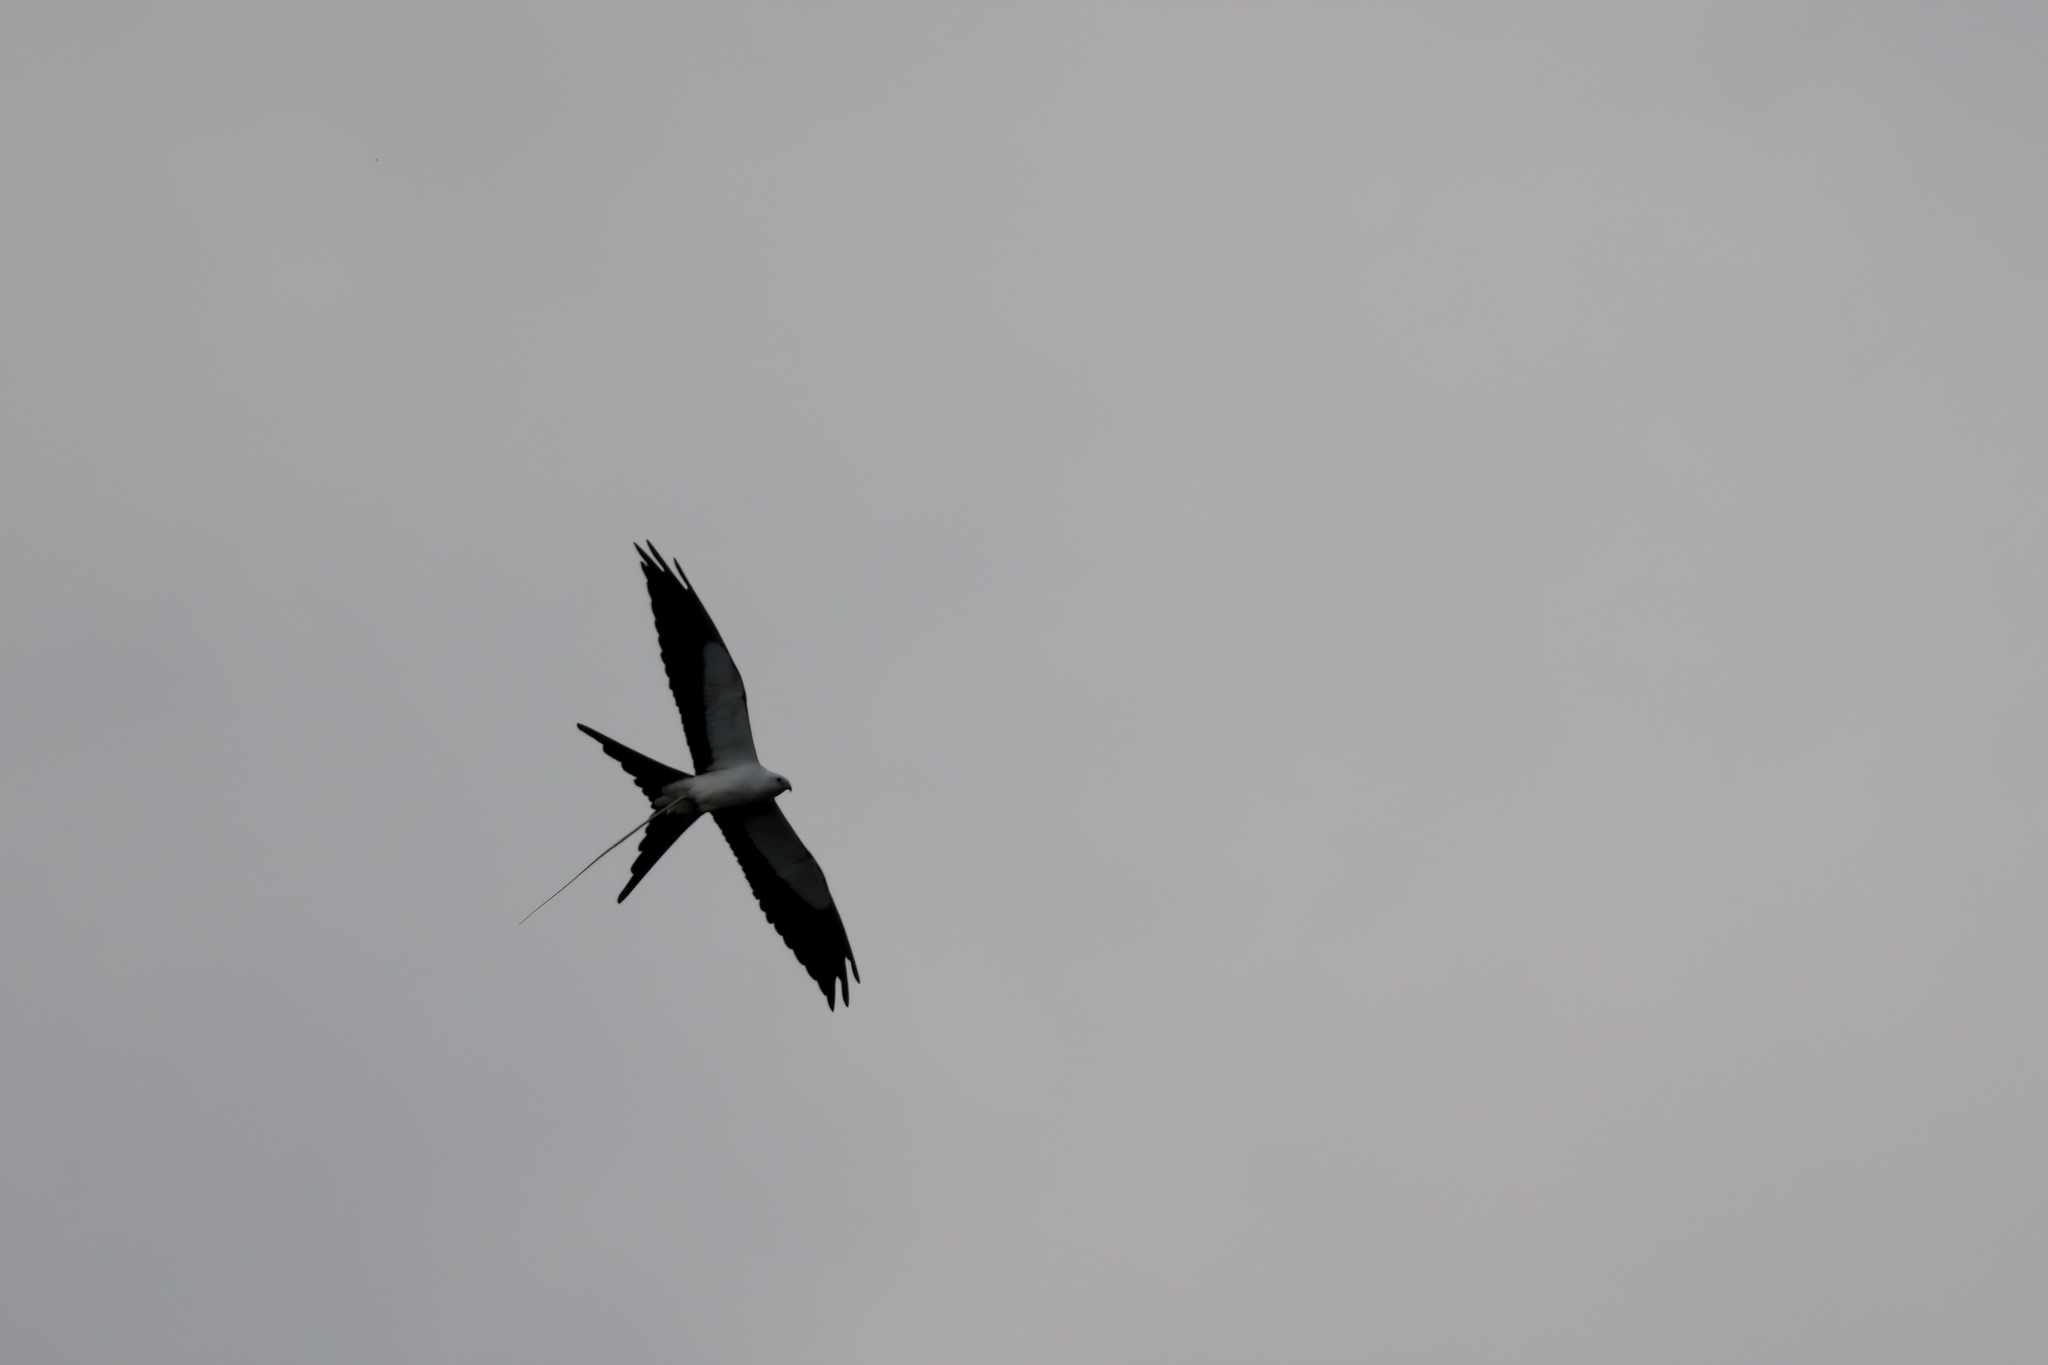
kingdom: Animalia
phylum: Chordata
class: Aves
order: Accipitriformes
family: Accipitridae
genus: Elanoides
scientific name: Elanoides forficatus
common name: Swallow-tailed kite
